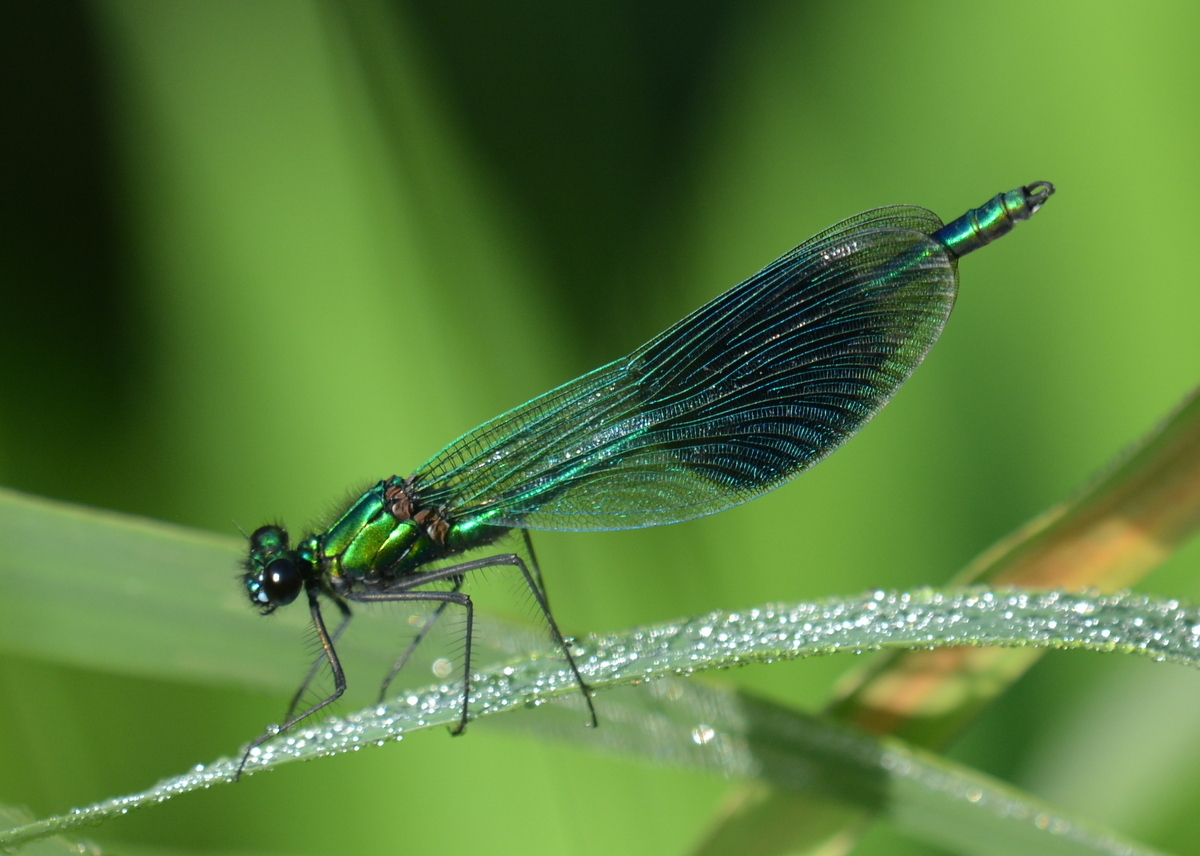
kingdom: Animalia
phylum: Arthropoda
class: Insecta
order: Odonata
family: Calopterygidae
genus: Calopteryx
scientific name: Calopteryx splendens
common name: Banded demoiselle
